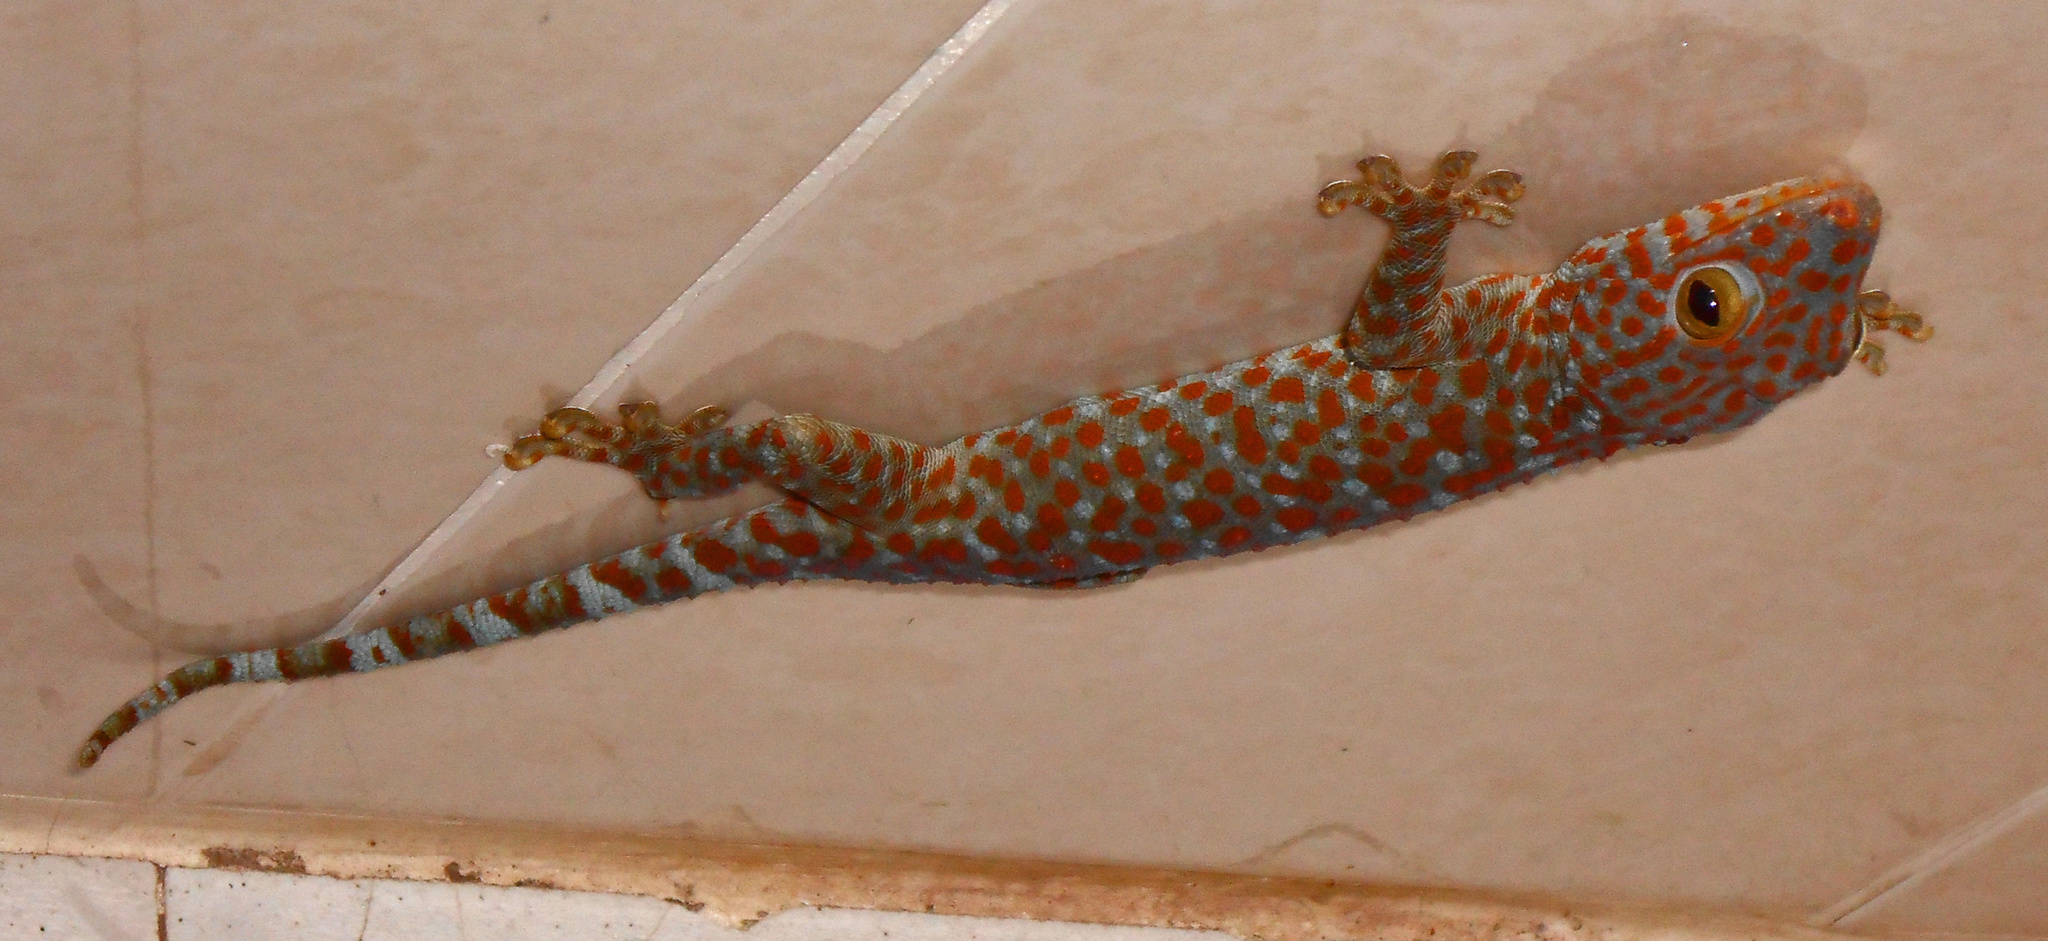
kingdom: Animalia
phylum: Chordata
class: Squamata
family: Gekkonidae
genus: Gekko
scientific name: Gekko gecko
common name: Tokay gecko
